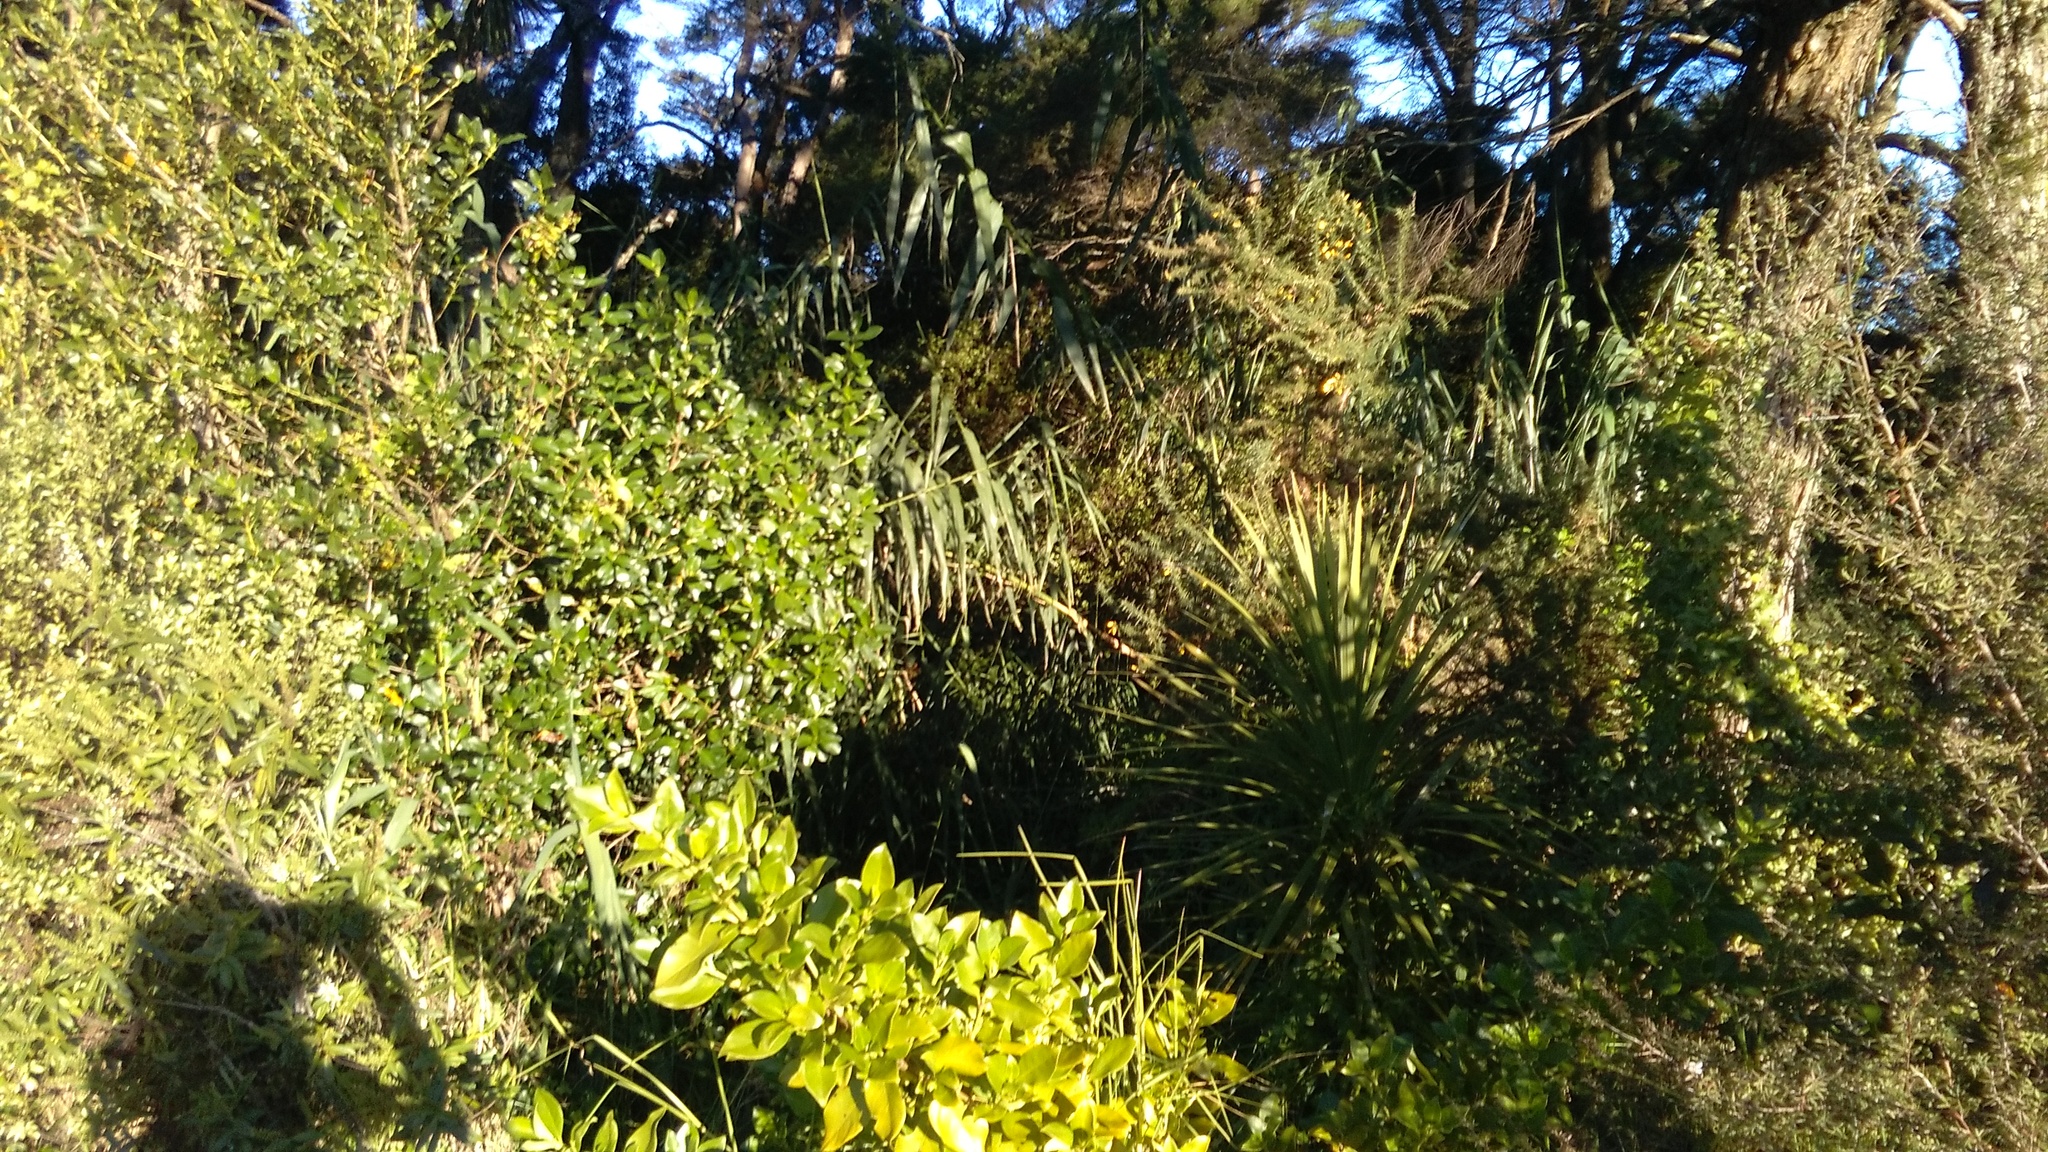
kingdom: Plantae
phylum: Tracheophyta
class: Magnoliopsida
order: Fabales
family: Fabaceae
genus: Ulex
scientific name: Ulex europaeus
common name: Common gorse
